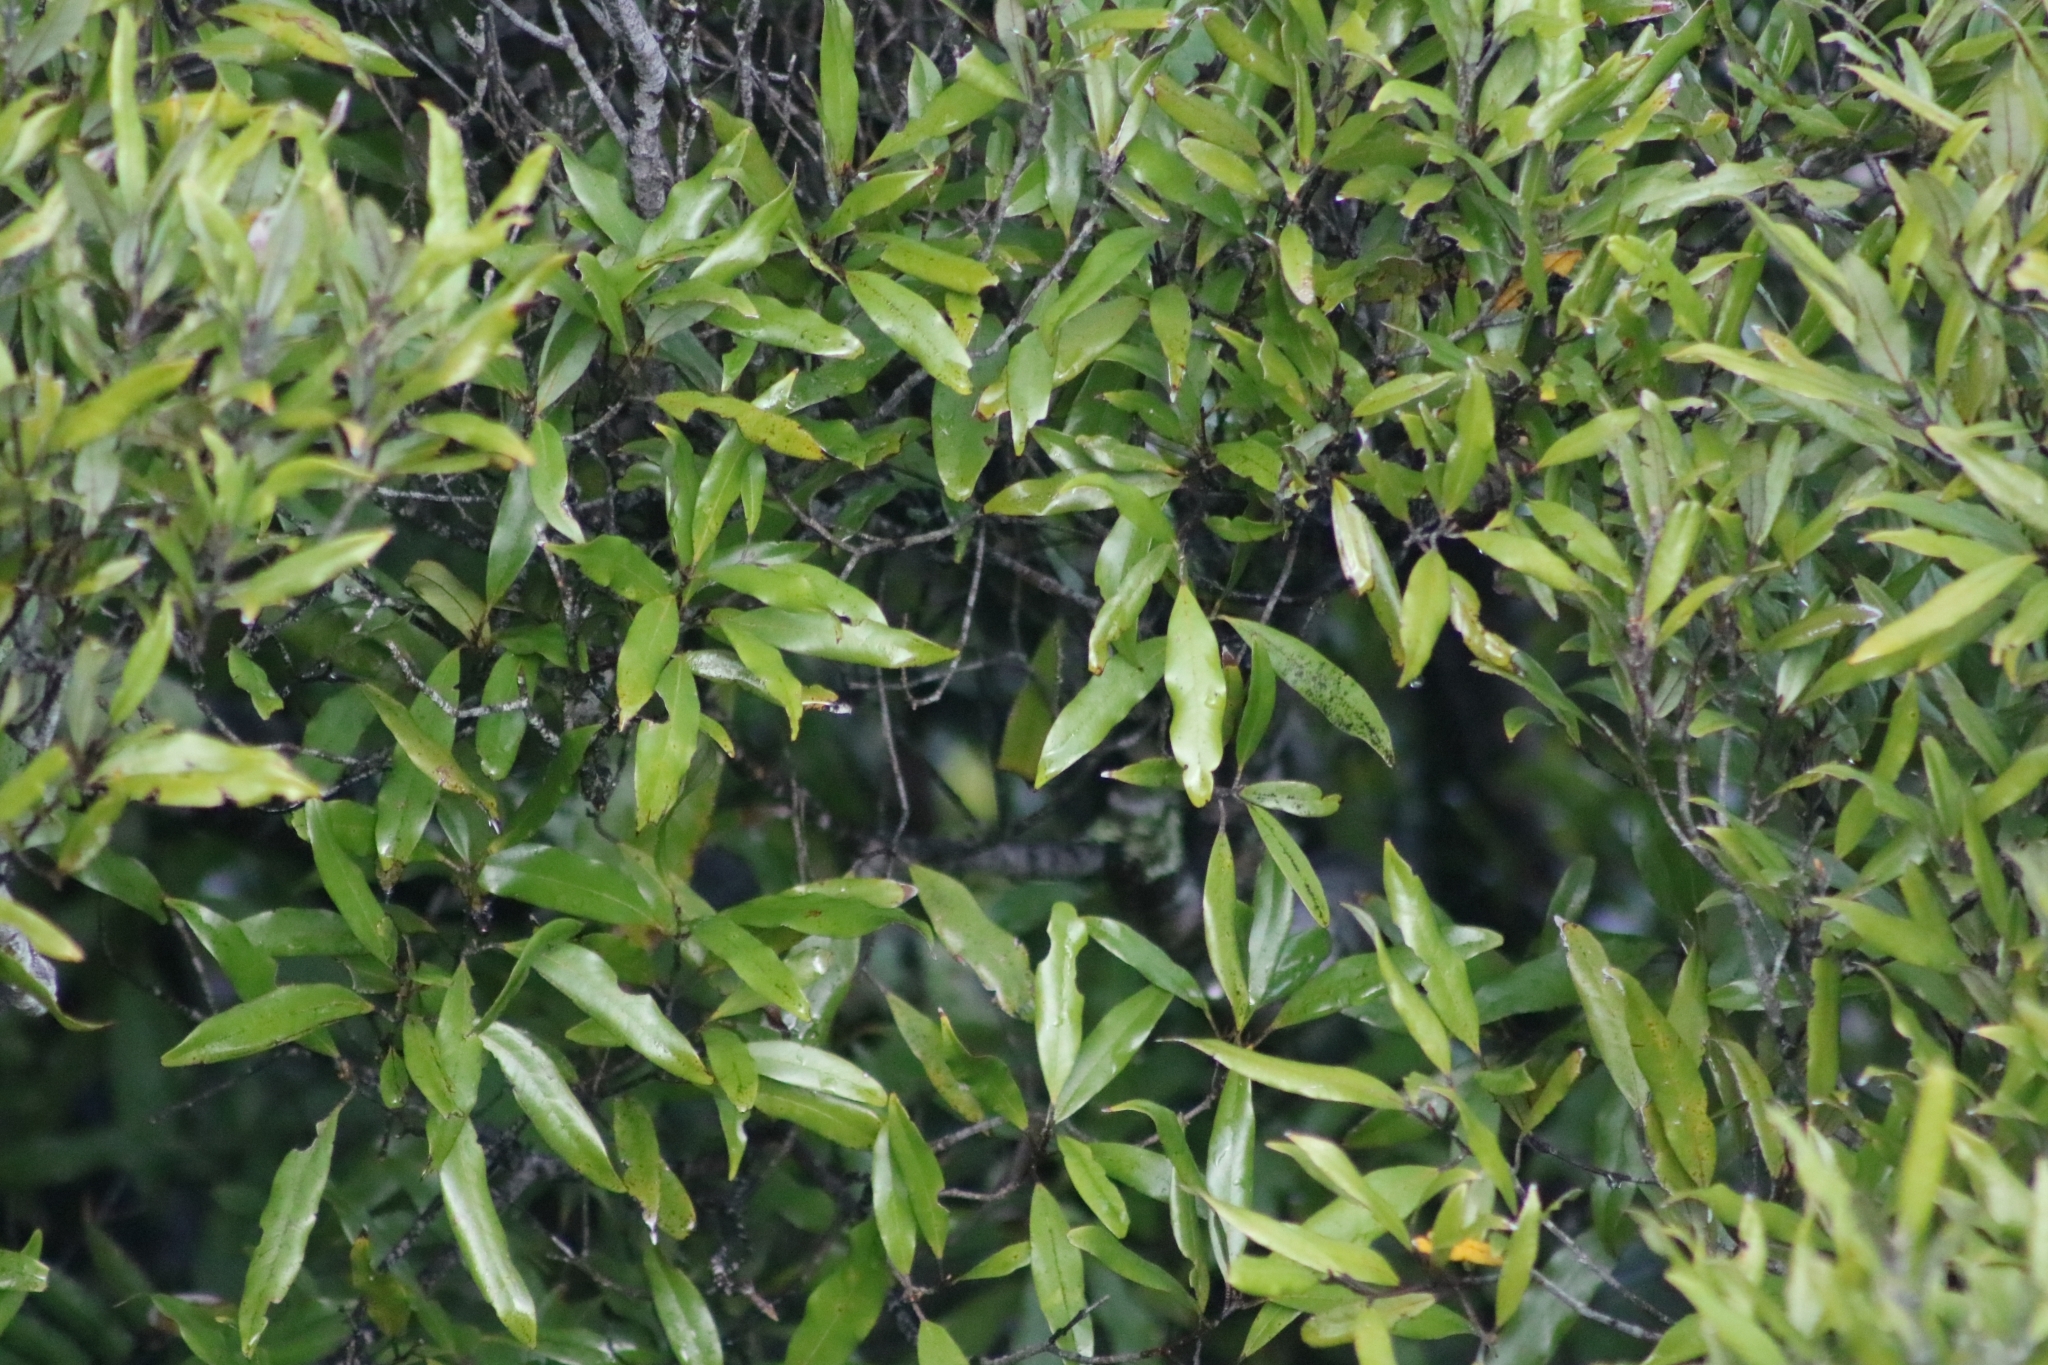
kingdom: Plantae
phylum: Tracheophyta
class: Magnoliopsida
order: Laurales
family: Lauraceae
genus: Beilschmiedia
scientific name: Beilschmiedia tawa
